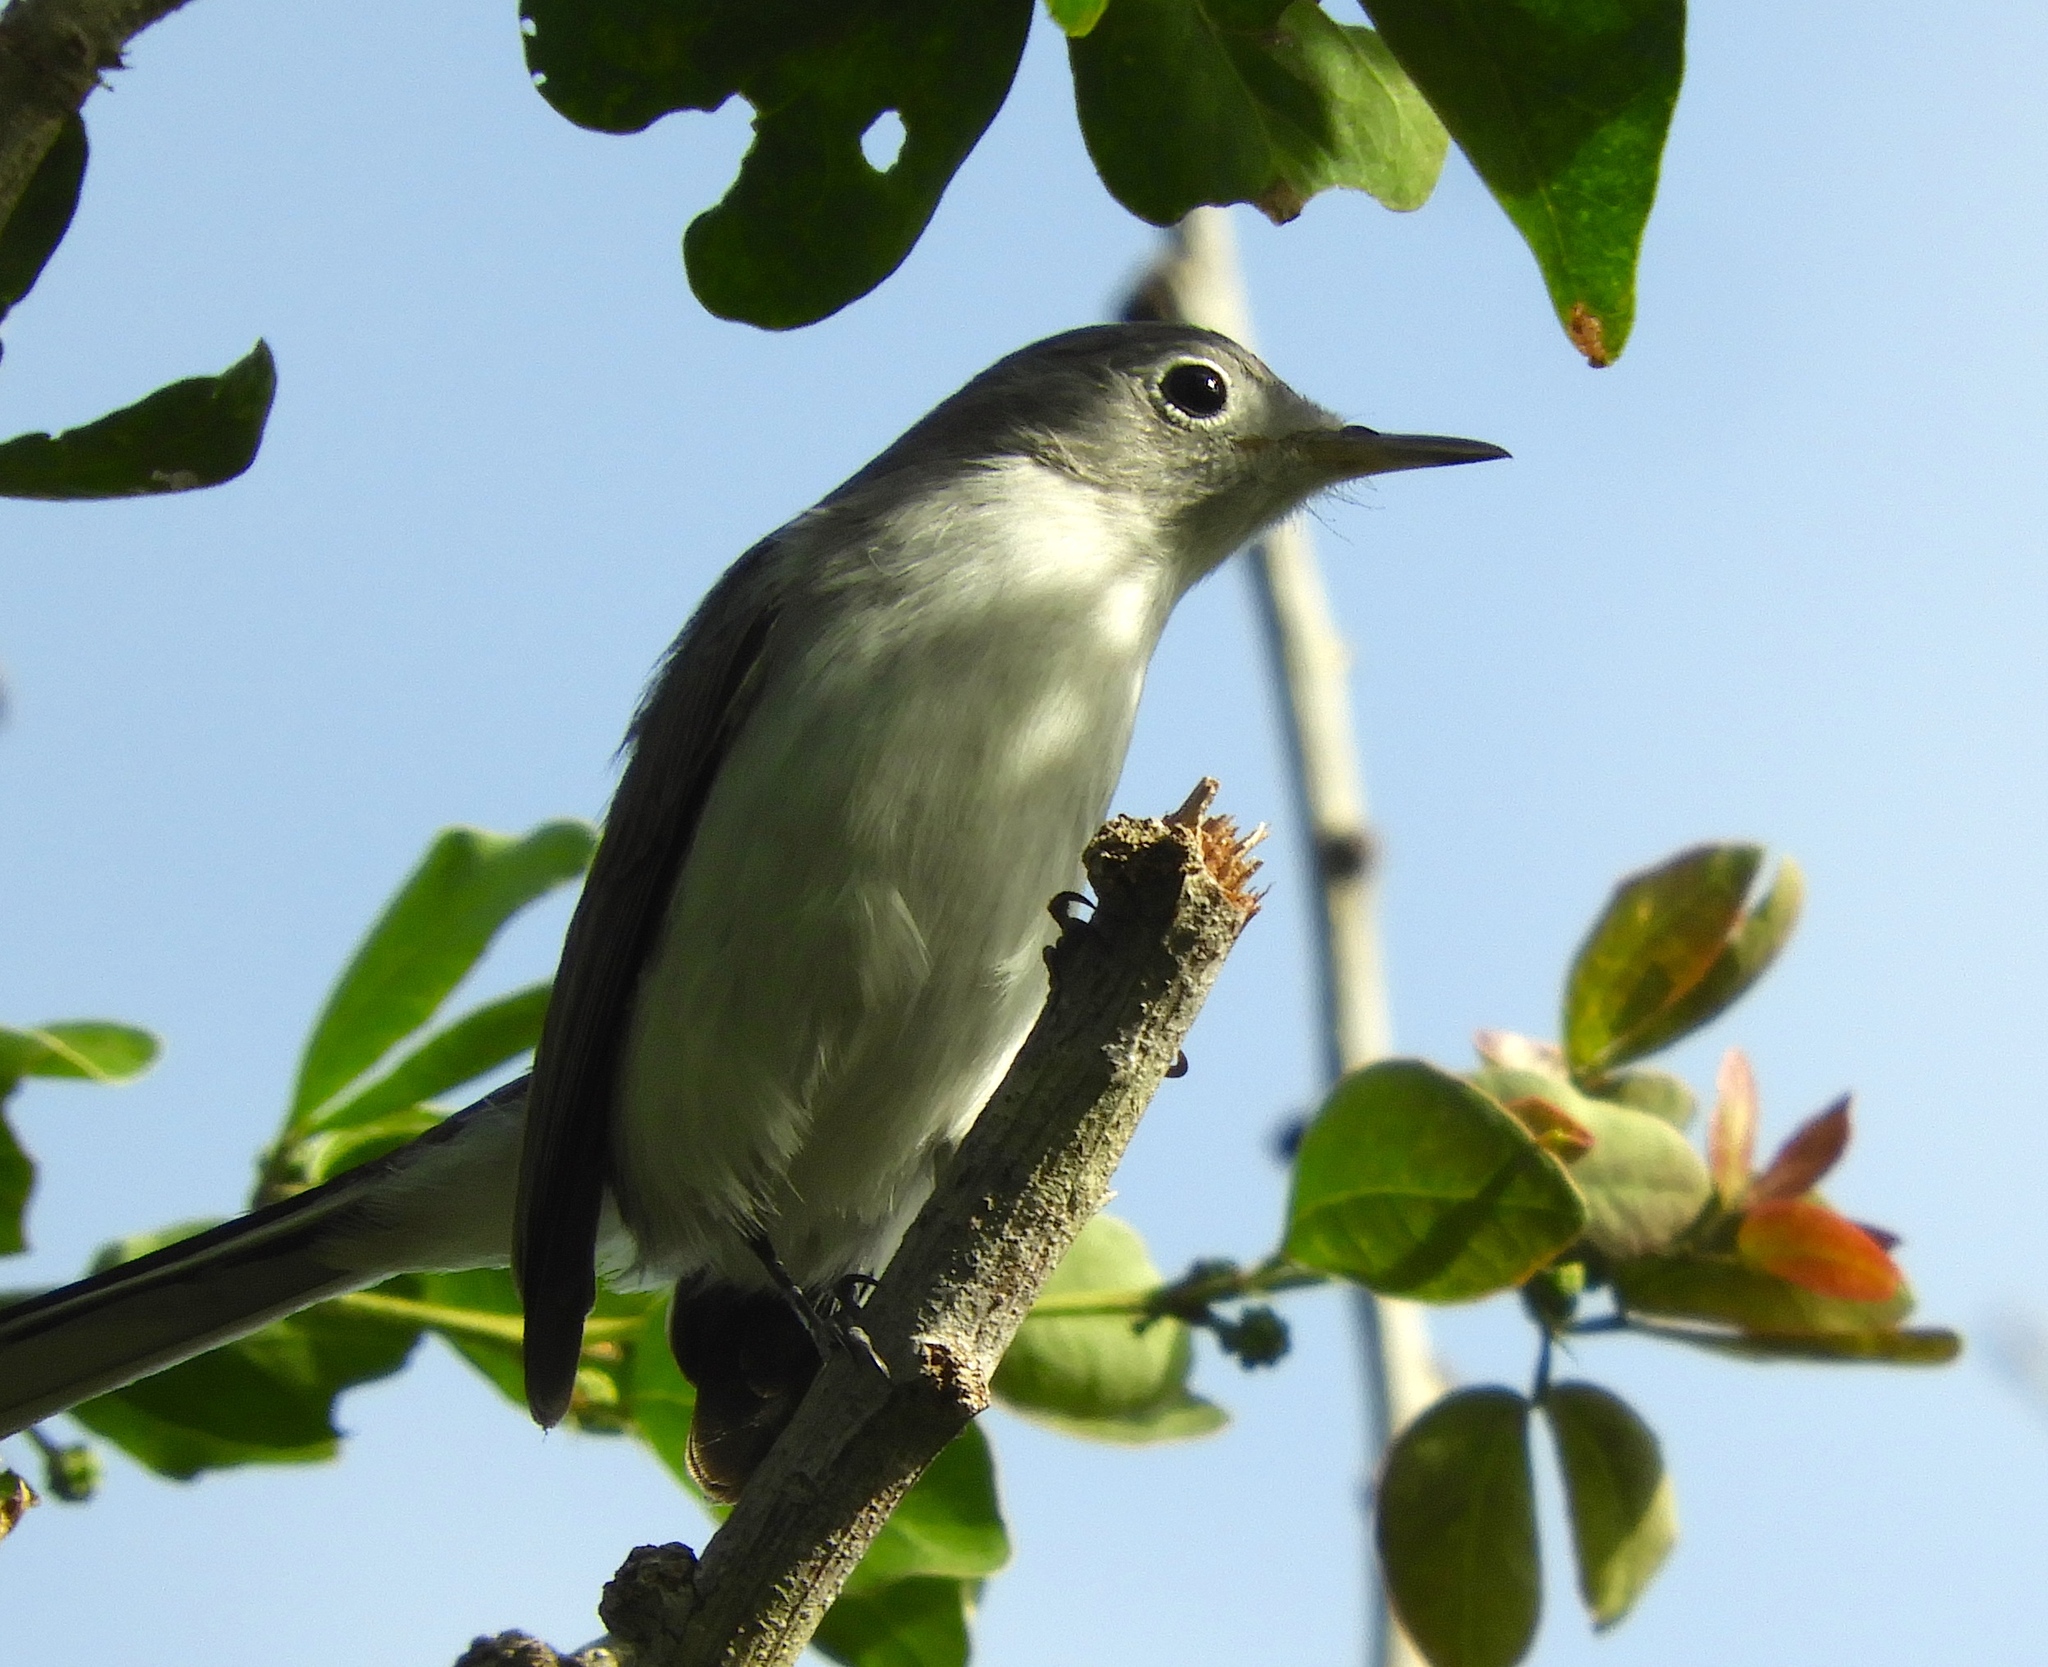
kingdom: Animalia
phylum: Chordata
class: Aves
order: Passeriformes
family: Polioptilidae
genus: Polioptila
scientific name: Polioptila
